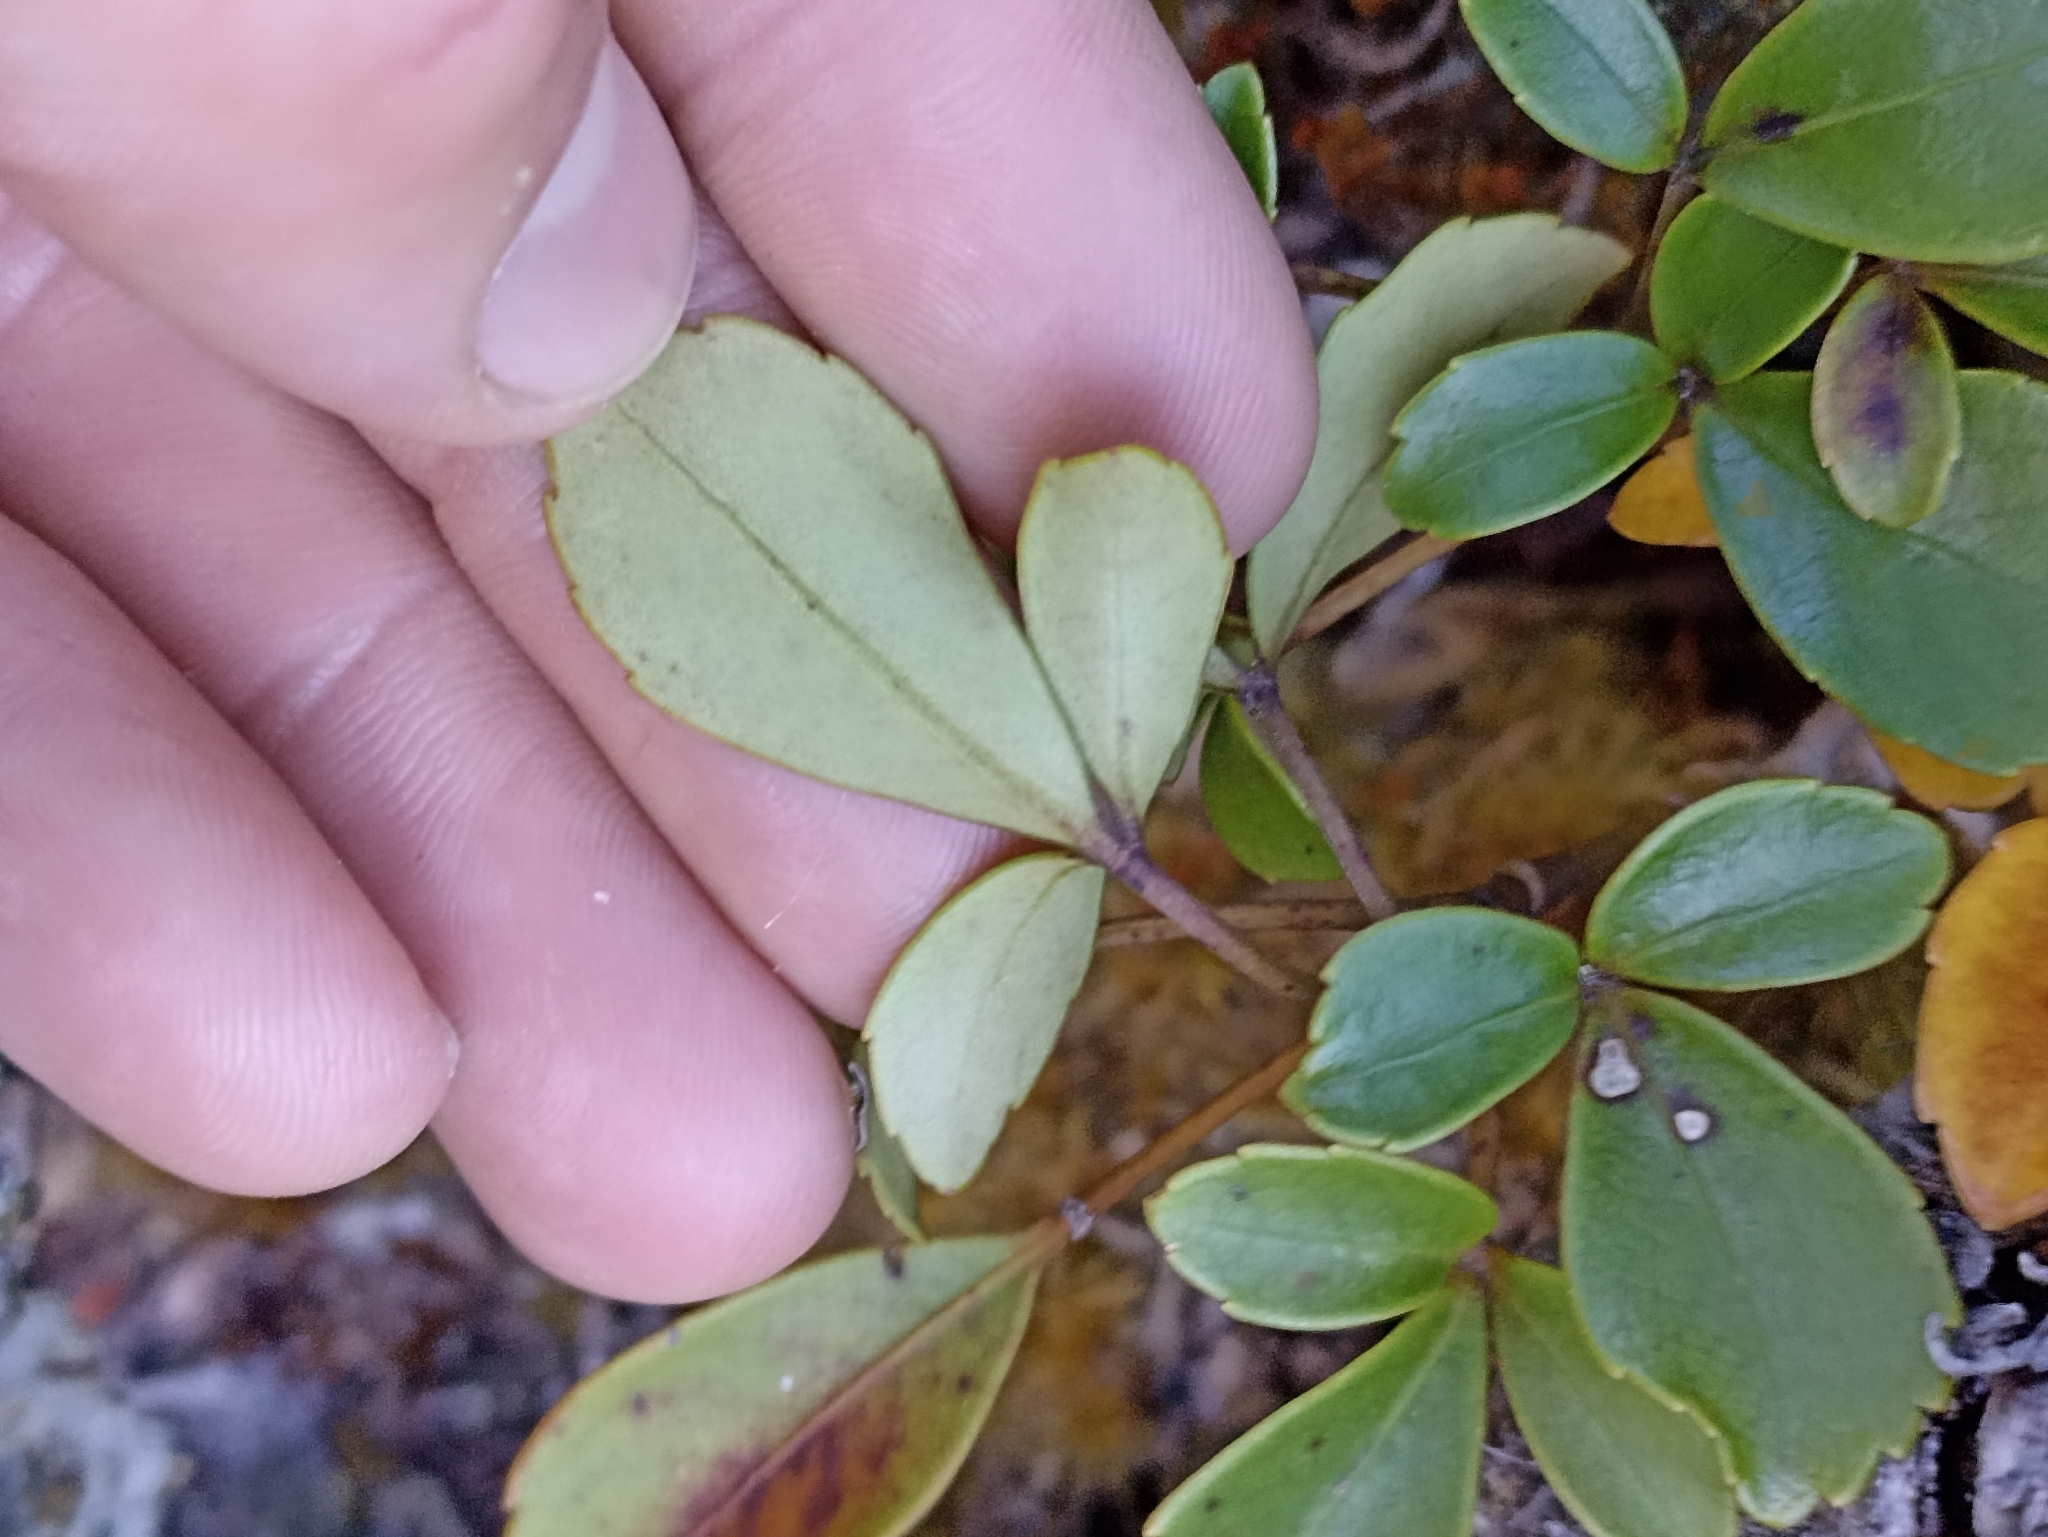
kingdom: Plantae
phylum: Tracheophyta
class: Magnoliopsida
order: Apiales
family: Araliaceae
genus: Neopanax
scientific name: Neopanax colensoi
